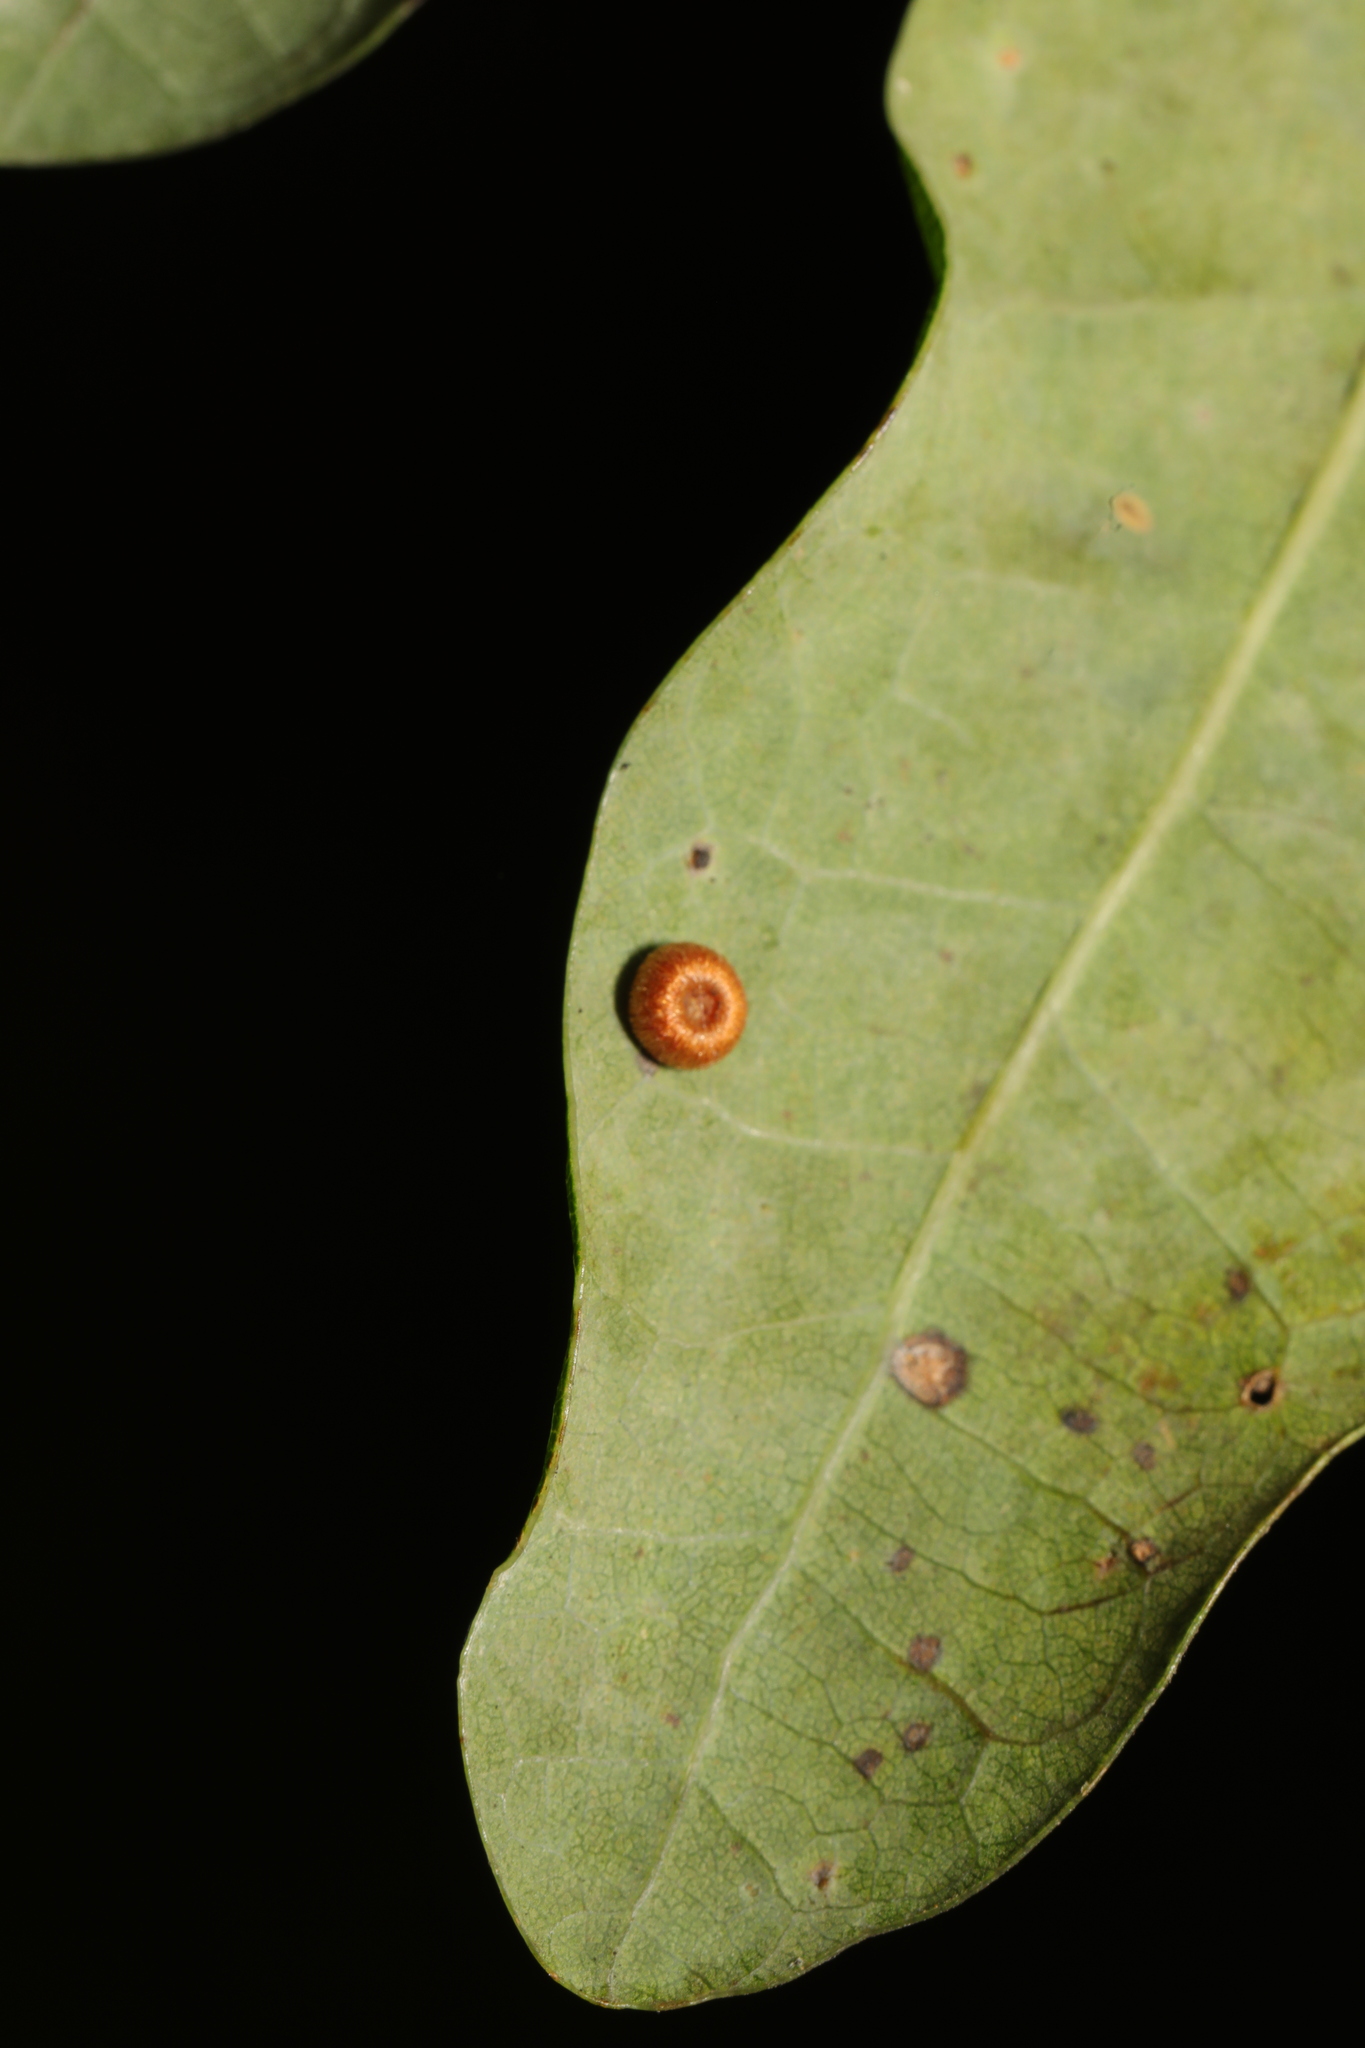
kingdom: Animalia
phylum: Arthropoda
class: Insecta
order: Hymenoptera
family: Cynipidae
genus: Neuroterus
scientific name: Neuroterus numismalis
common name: Silk-button spangle gall
